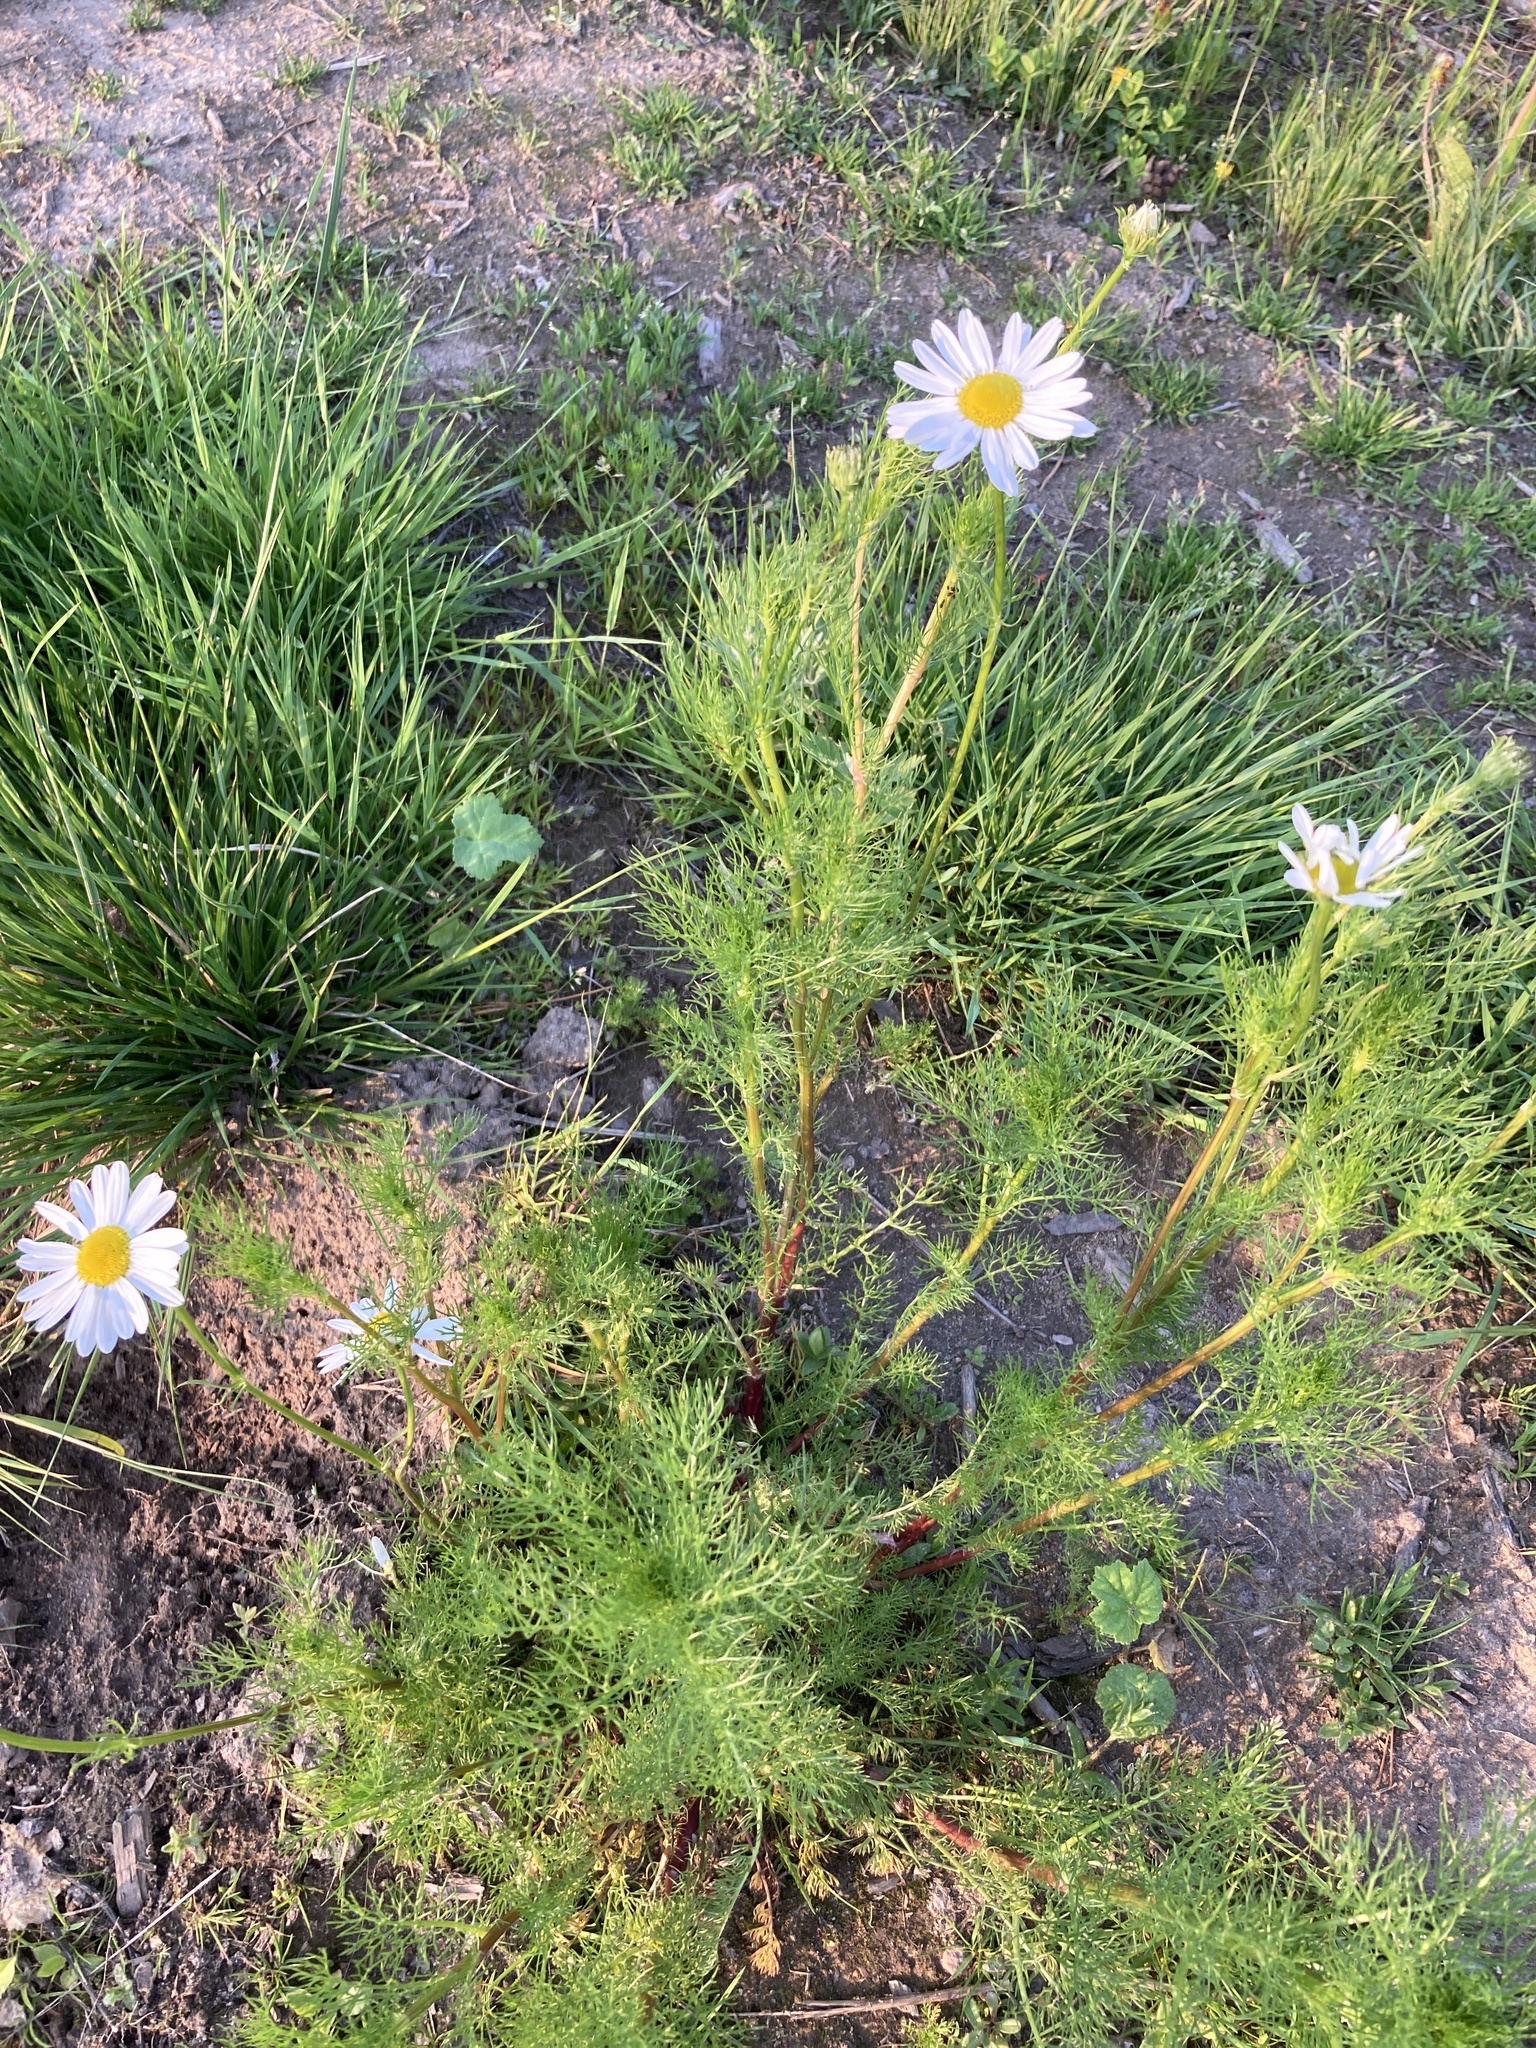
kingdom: Plantae
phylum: Tracheophyta
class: Magnoliopsida
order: Asterales
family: Asteraceae
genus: Tripleurospermum
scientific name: Tripleurospermum inodorum
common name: Scentless mayweed
